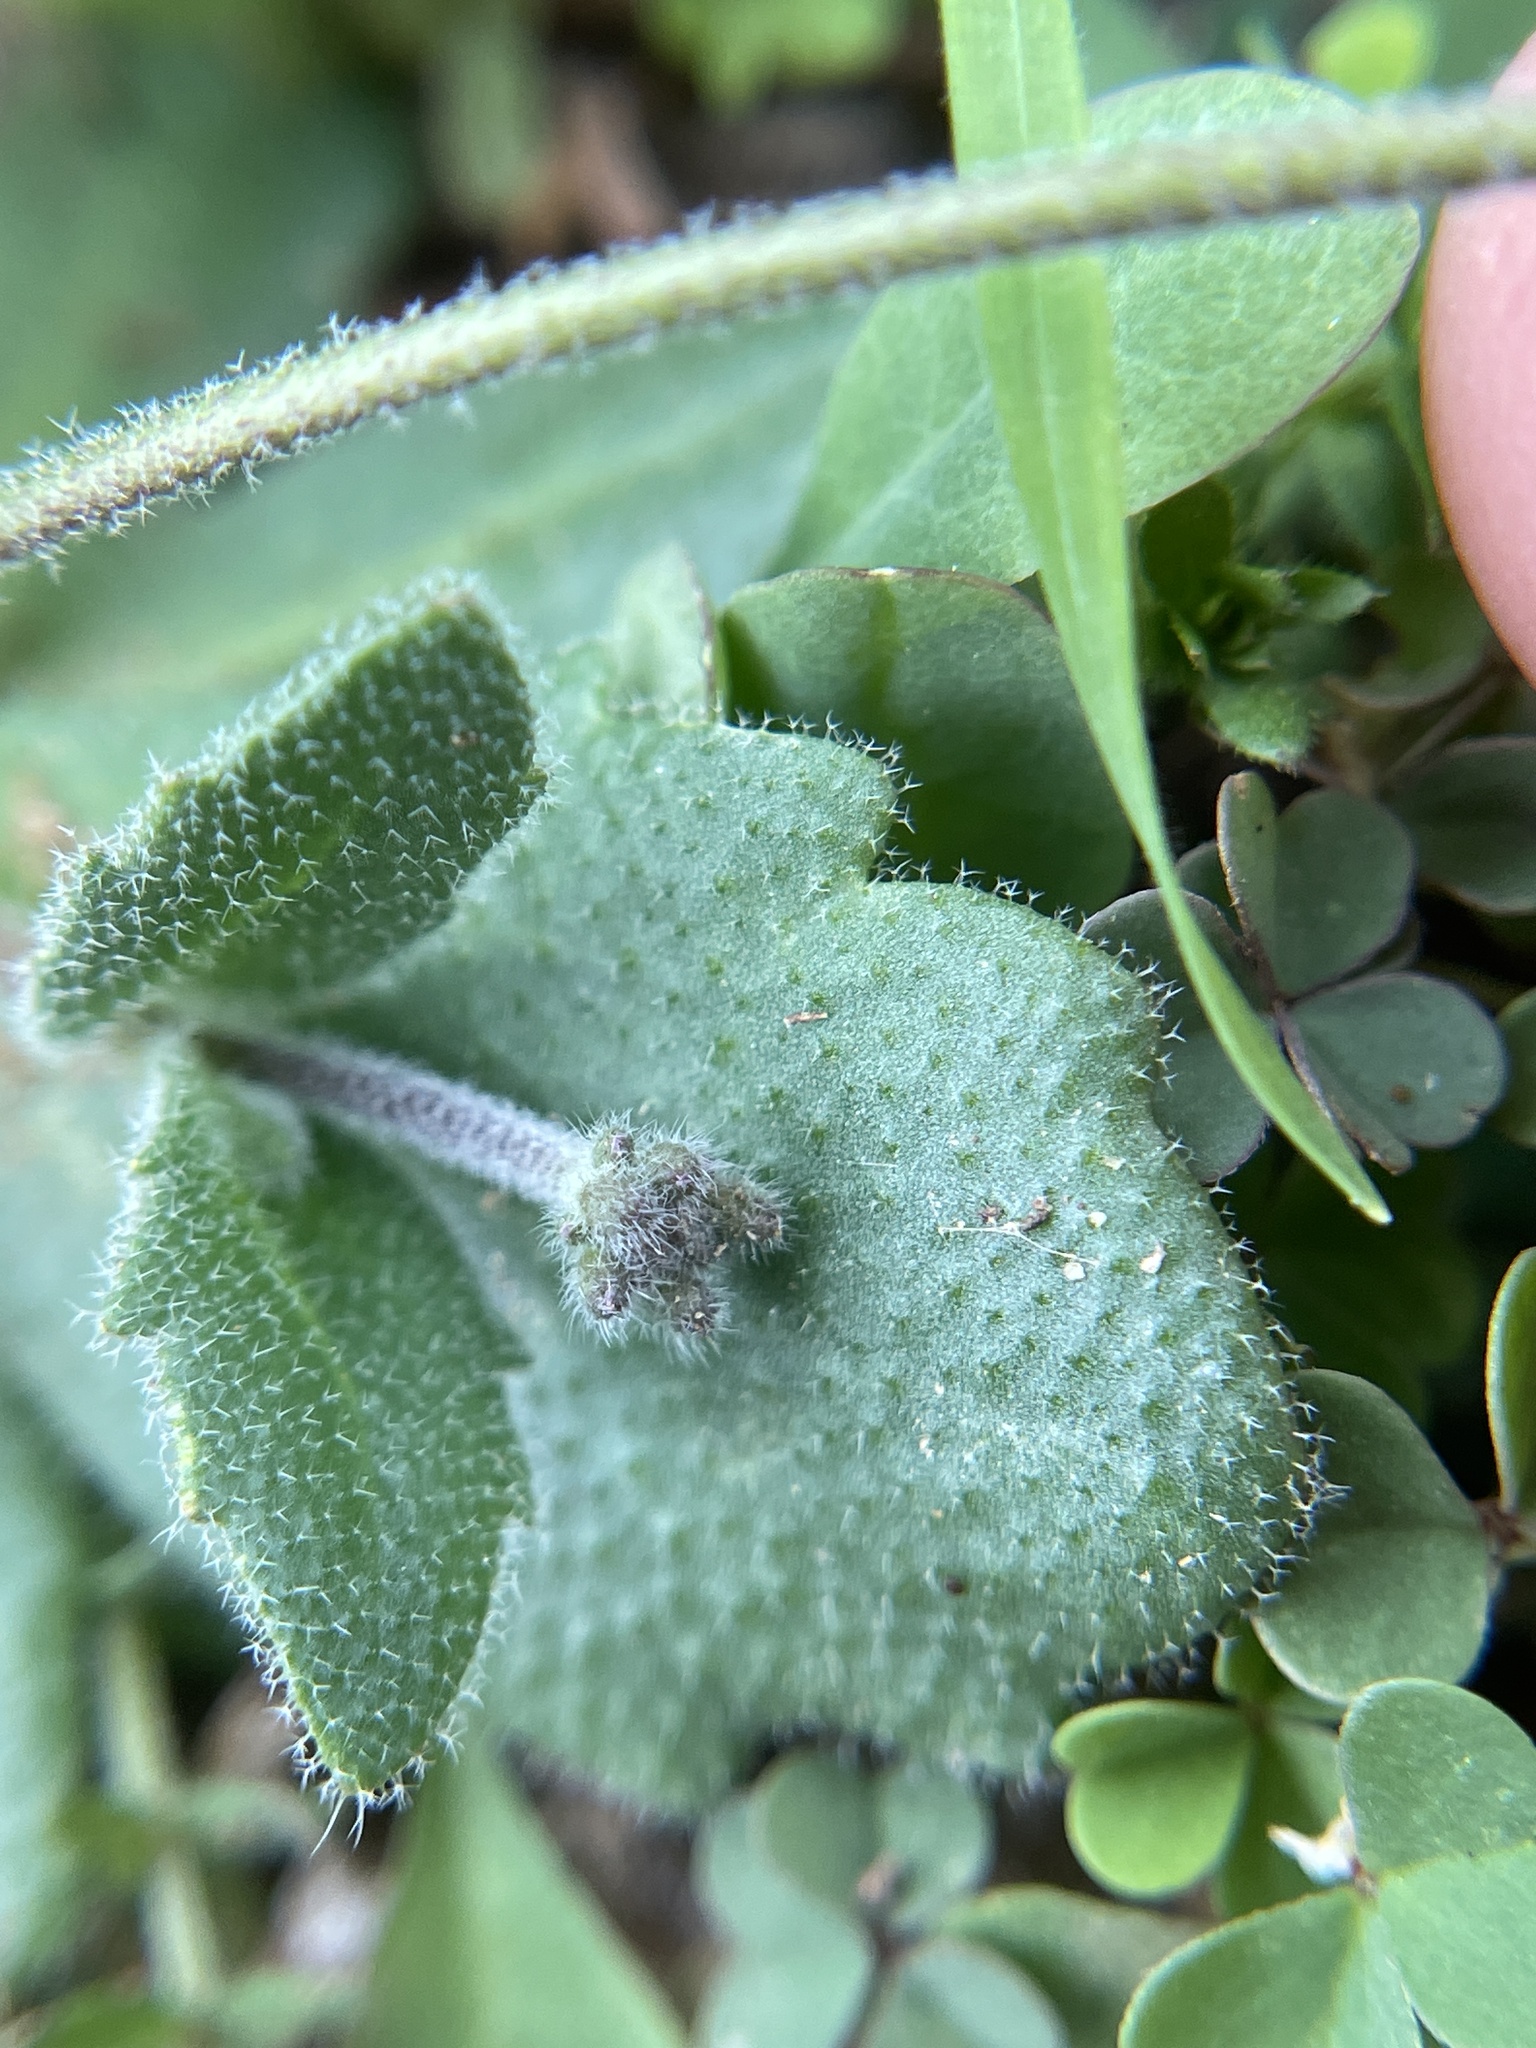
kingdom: Plantae
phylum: Tracheophyta
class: Magnoliopsida
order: Brassicales
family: Brassicaceae
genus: Tomostima
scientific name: Tomostima cuneifolia
